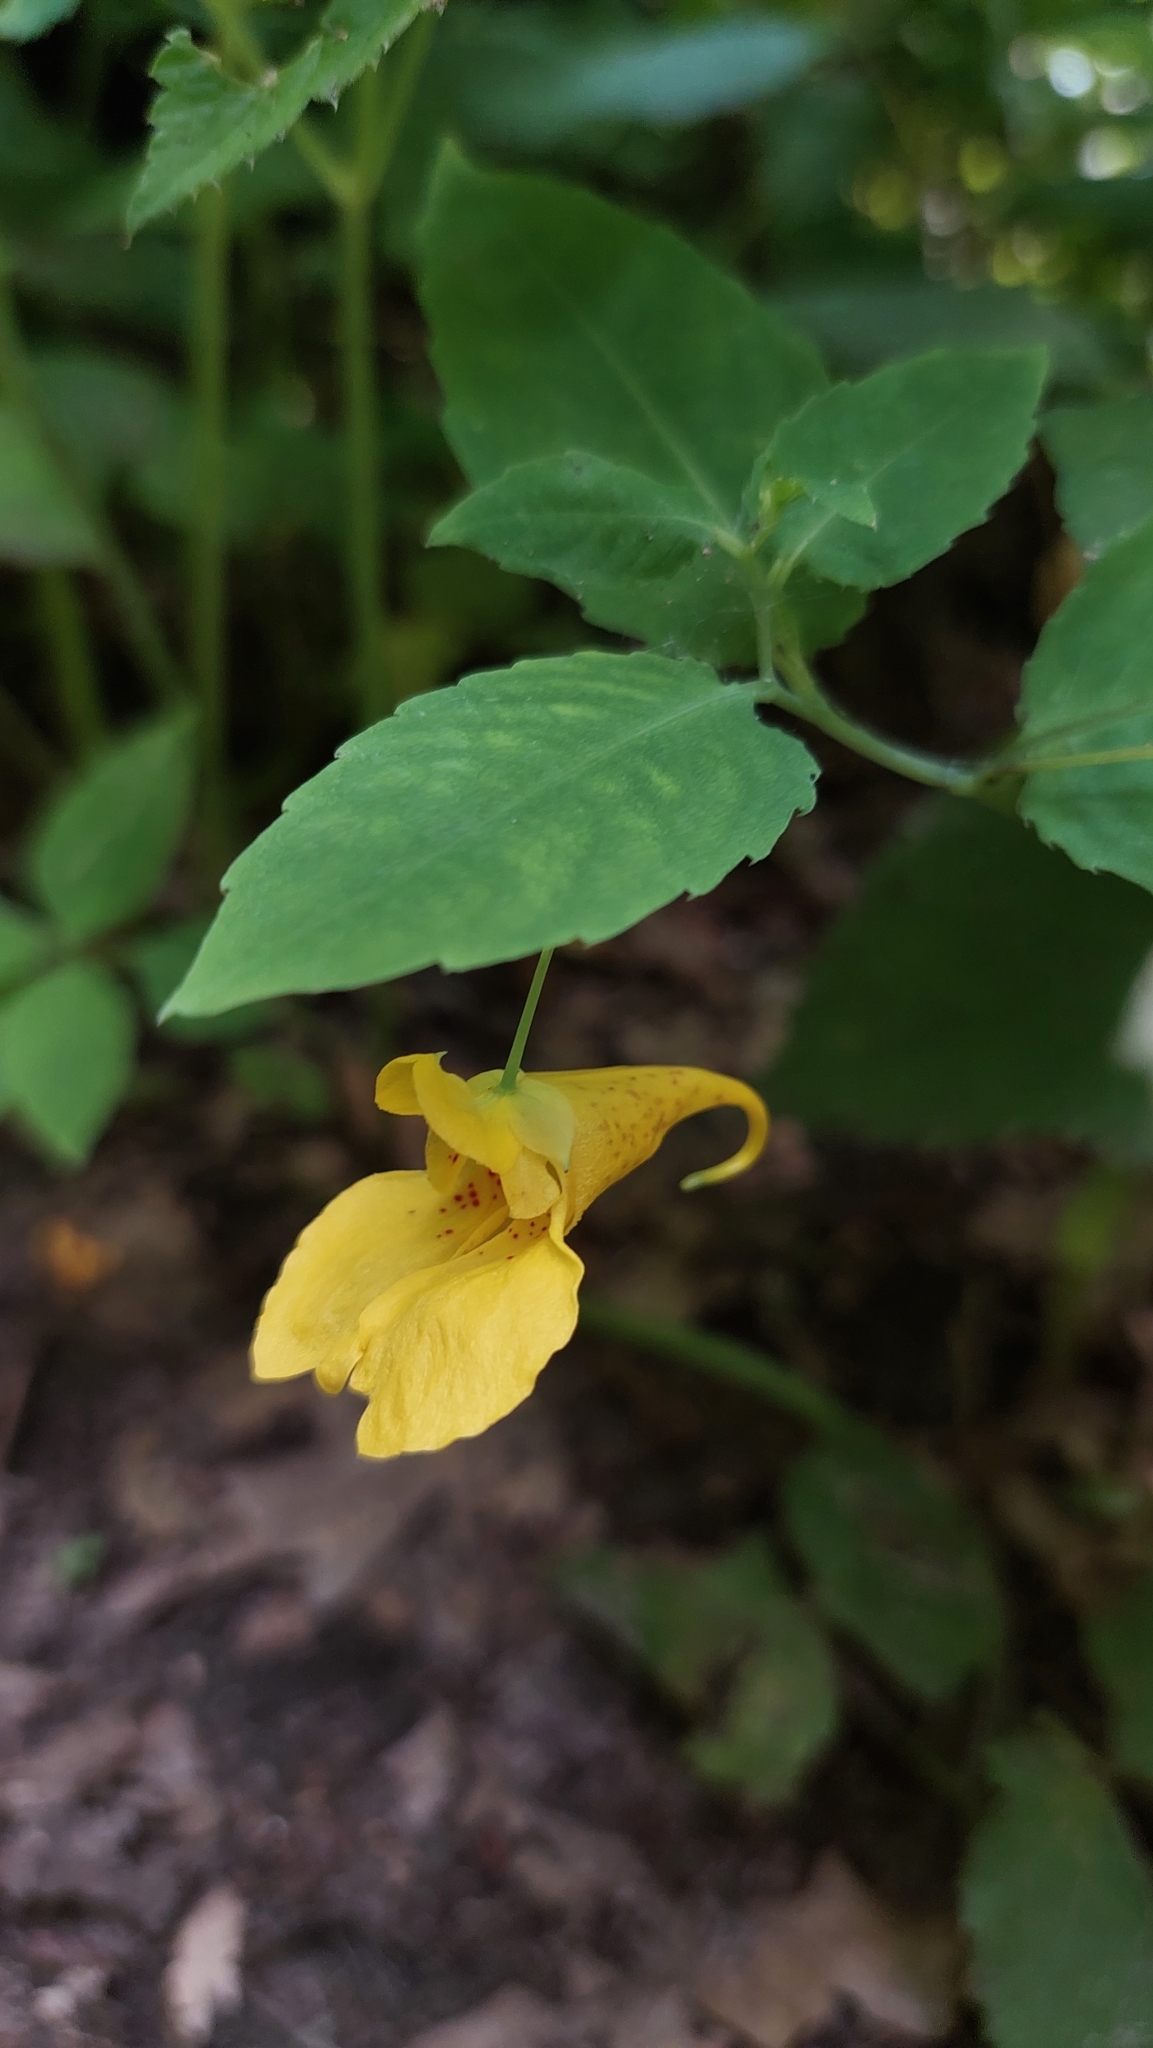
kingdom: Plantae
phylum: Tracheophyta
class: Magnoliopsida
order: Ericales
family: Balsaminaceae
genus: Impatiens
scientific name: Impatiens noli-tangere
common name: Touch-me-not balsam
